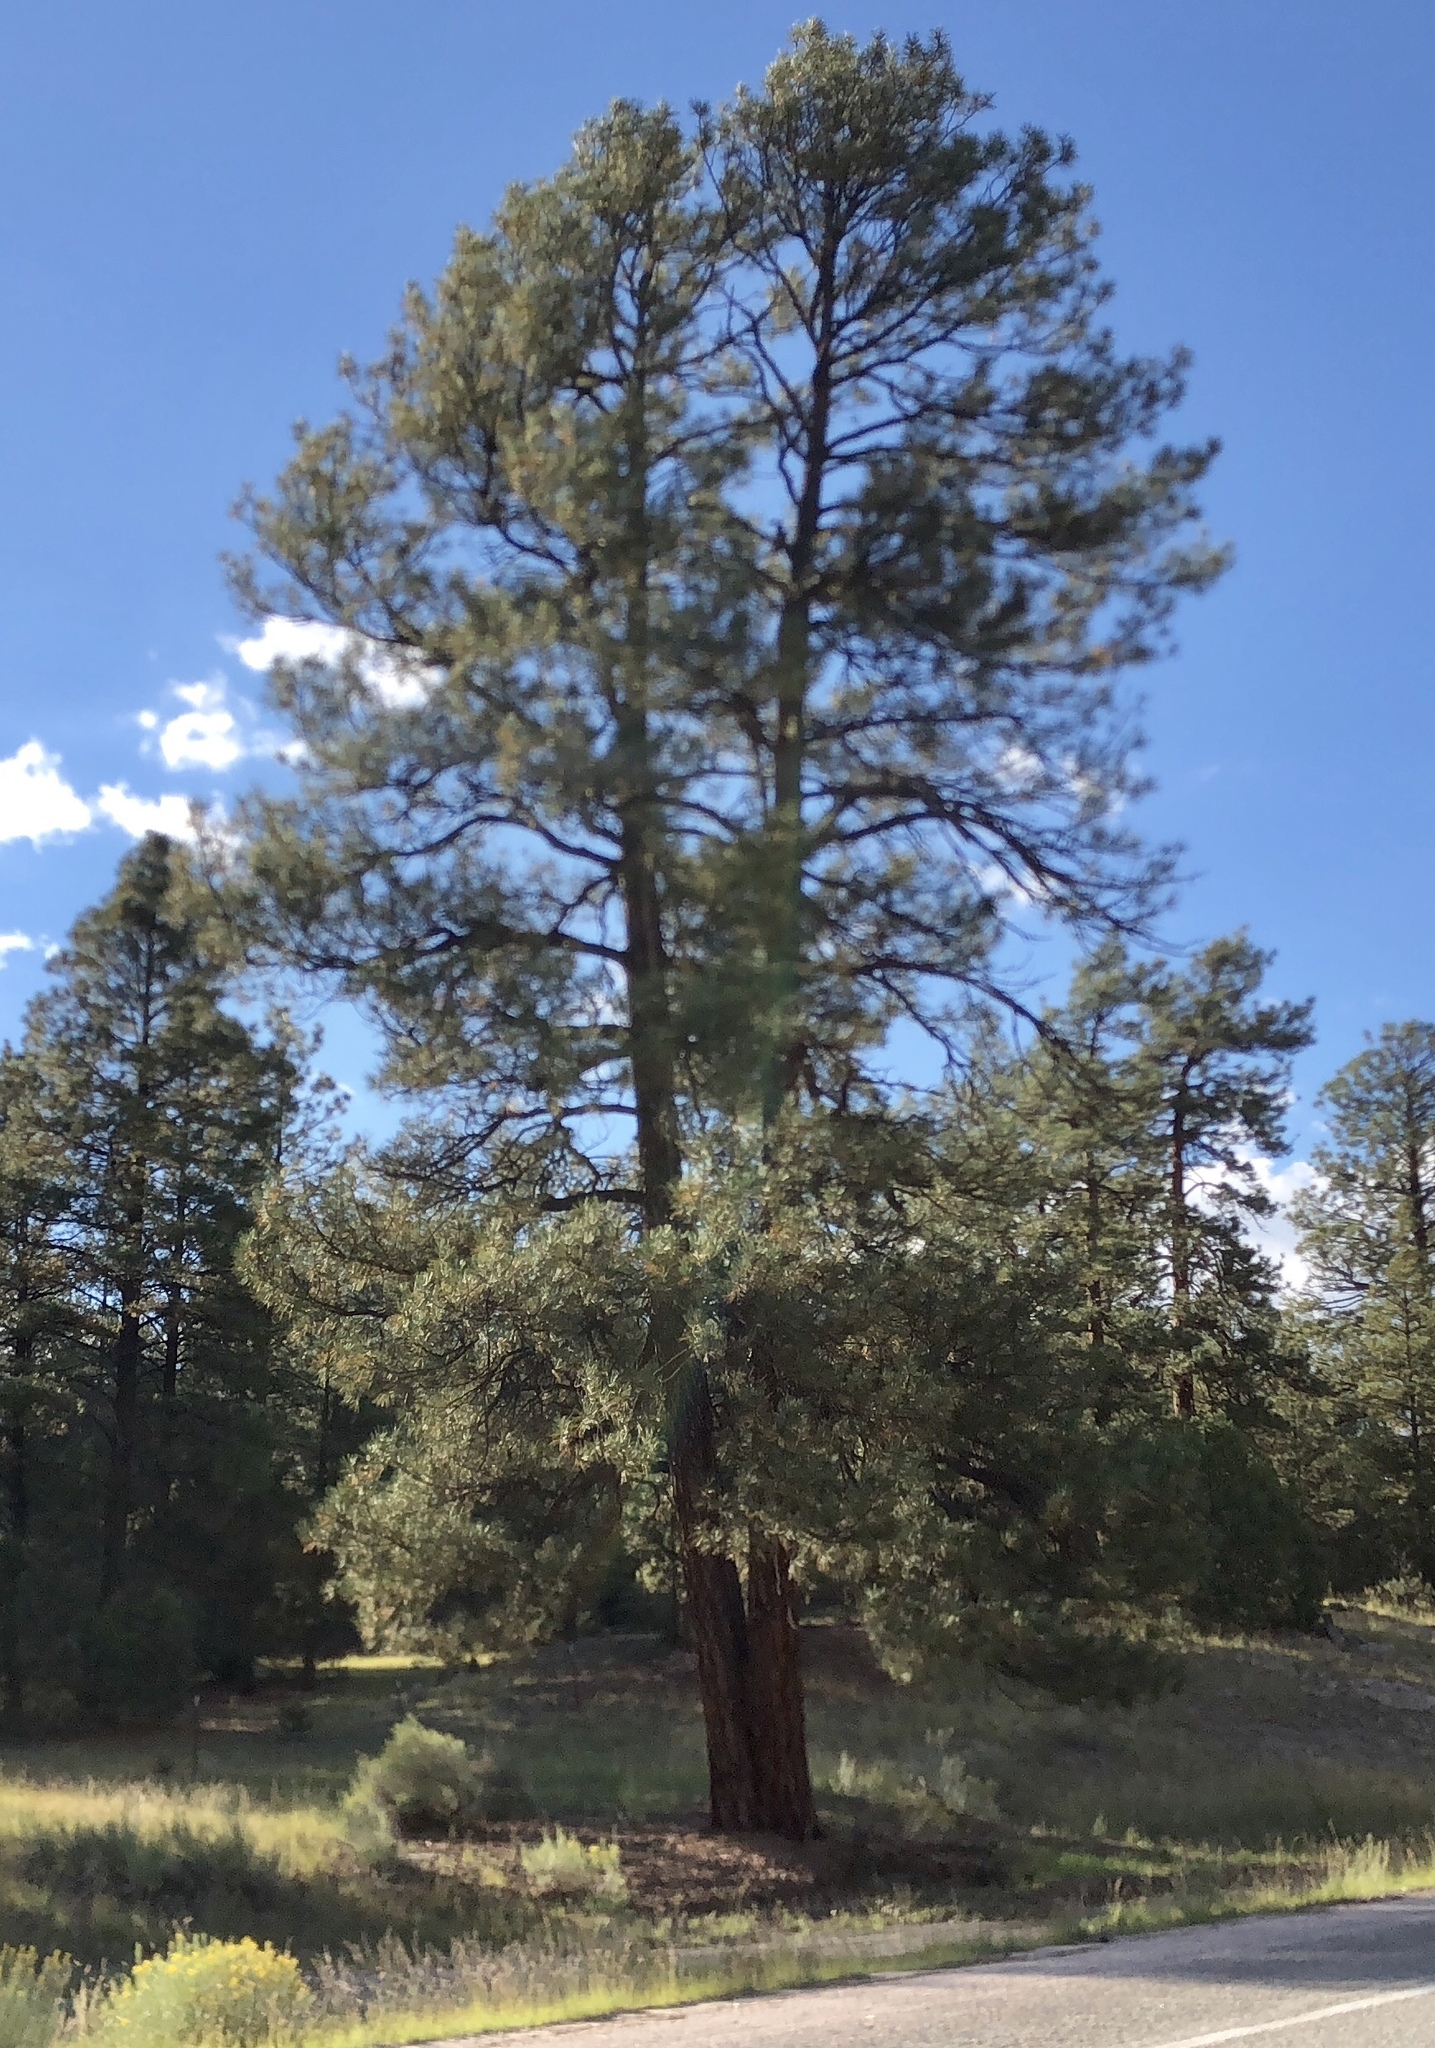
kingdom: Plantae
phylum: Tracheophyta
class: Pinopsida
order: Pinales
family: Pinaceae
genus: Pinus
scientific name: Pinus ponderosa
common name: Western yellow-pine
